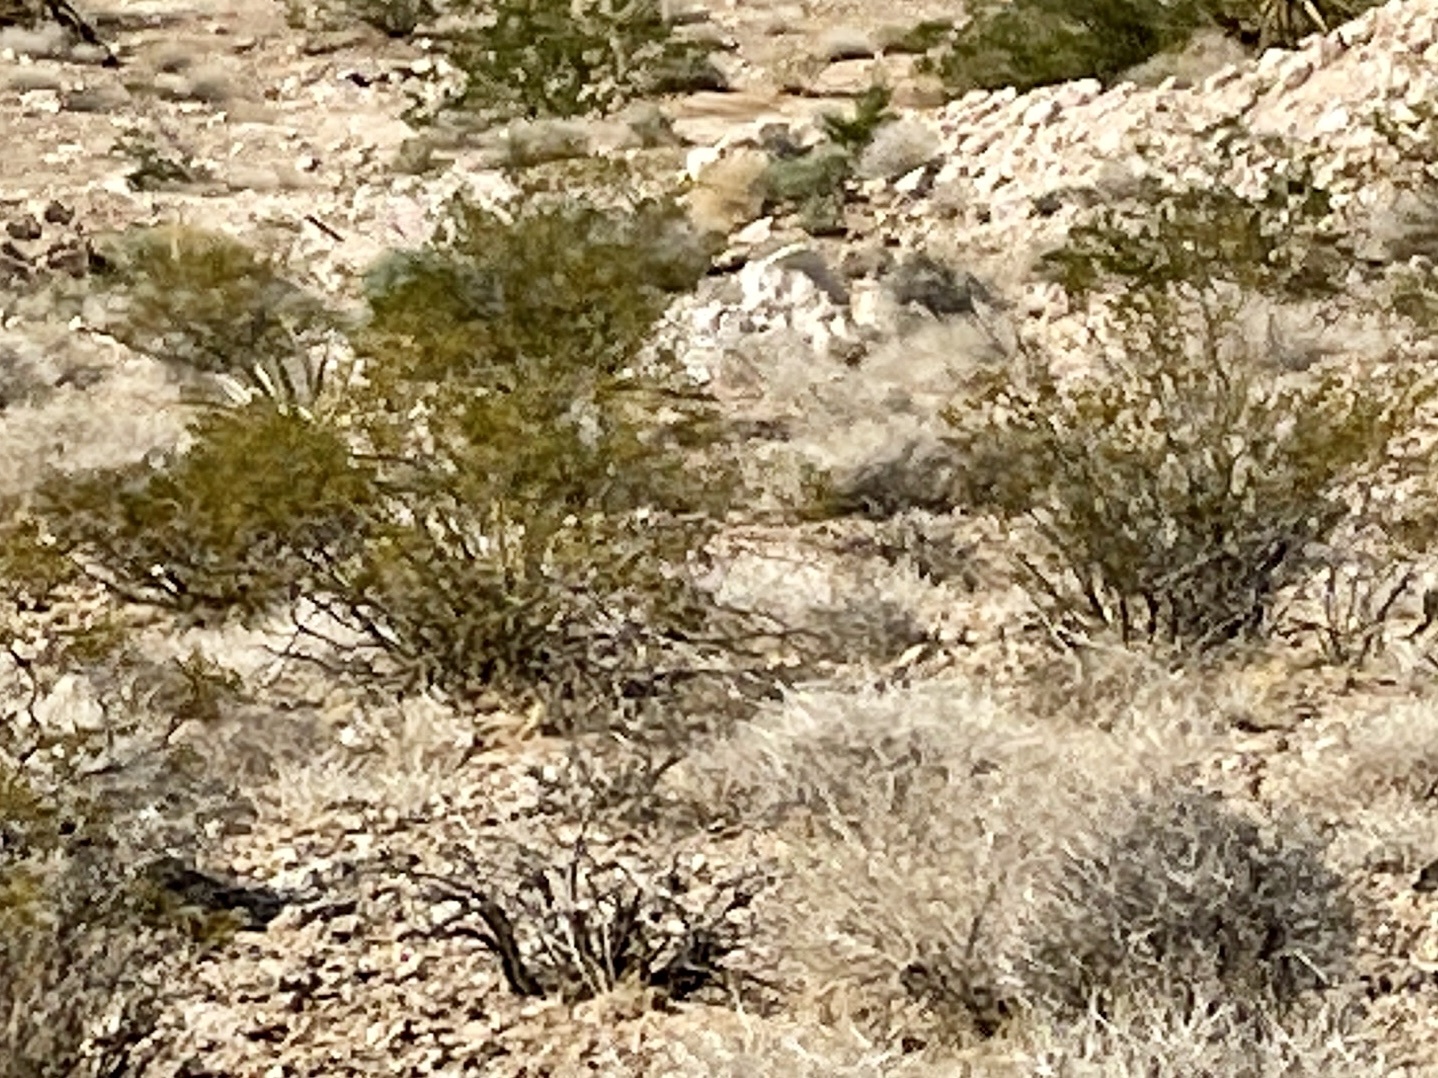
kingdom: Plantae
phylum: Tracheophyta
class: Magnoliopsida
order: Zygophyllales
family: Zygophyllaceae
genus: Larrea
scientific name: Larrea tridentata
